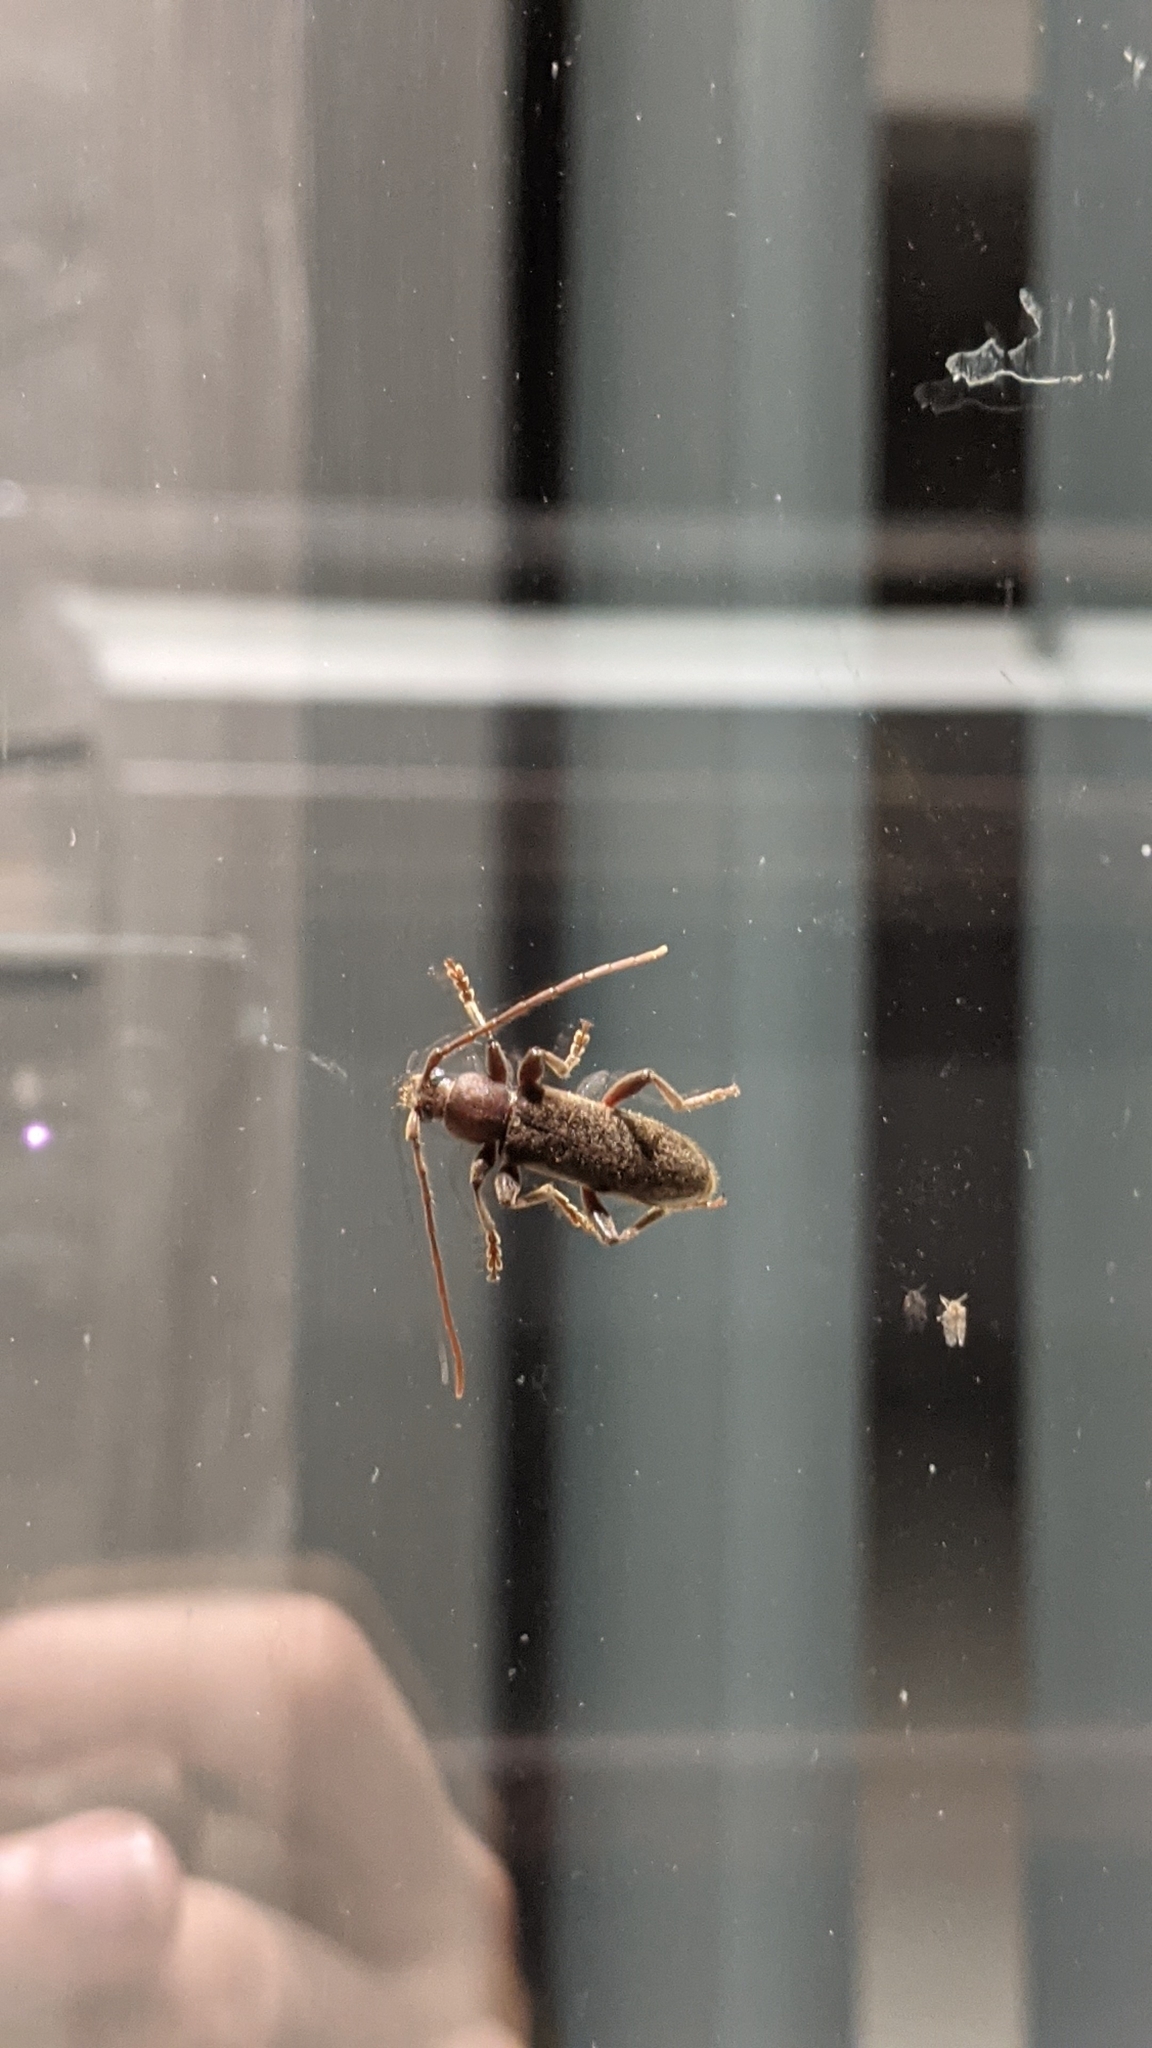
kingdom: Animalia
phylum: Arthropoda
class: Insecta
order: Coleoptera
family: Cerambycidae
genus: Trichoferus
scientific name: Trichoferus campestris
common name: Velvet long horned beetle
